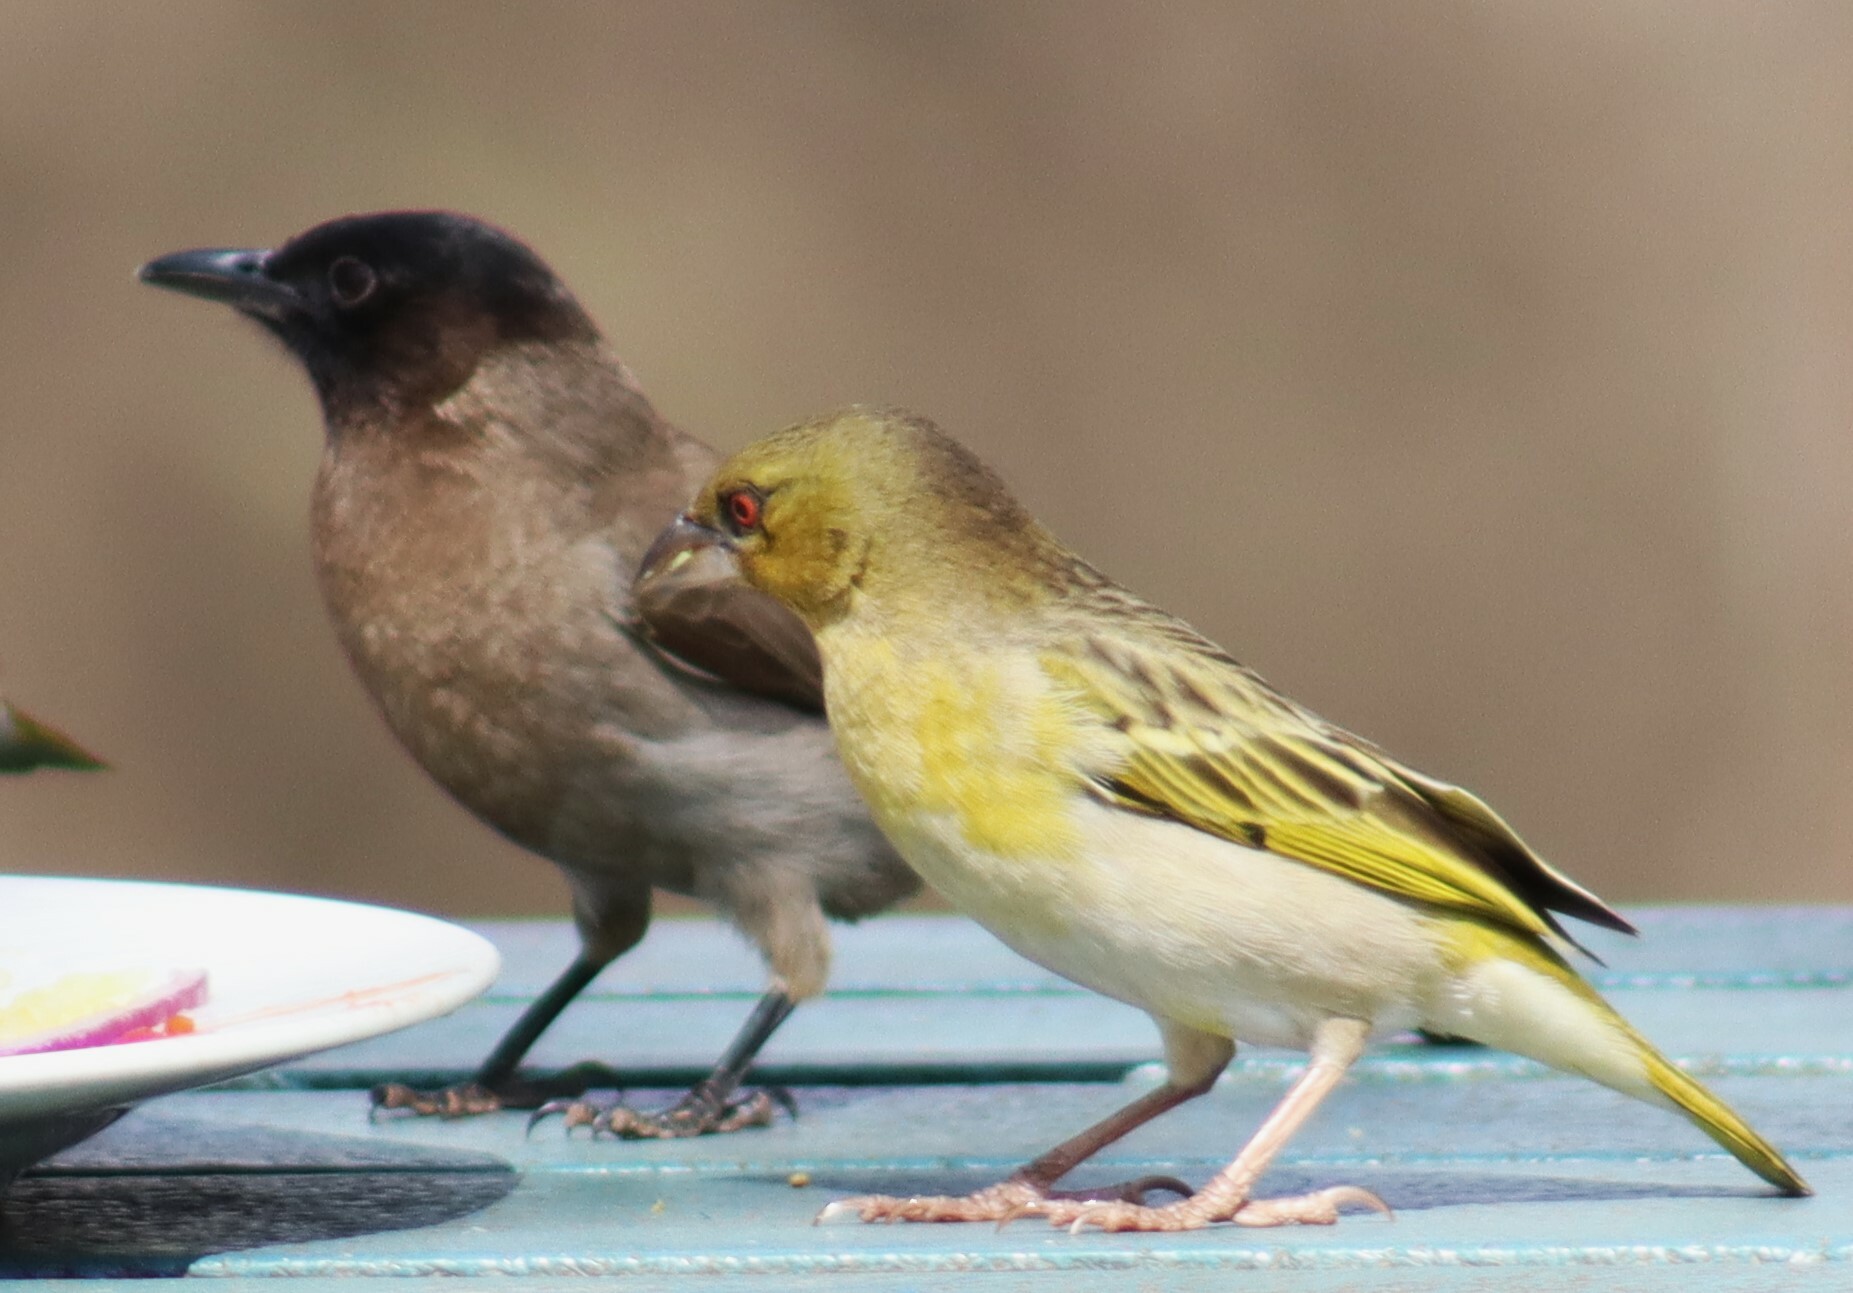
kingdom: Animalia
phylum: Chordata
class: Aves
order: Passeriformes
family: Pycnonotidae
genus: Pycnonotus
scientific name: Pycnonotus barbatus
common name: Common bulbul
